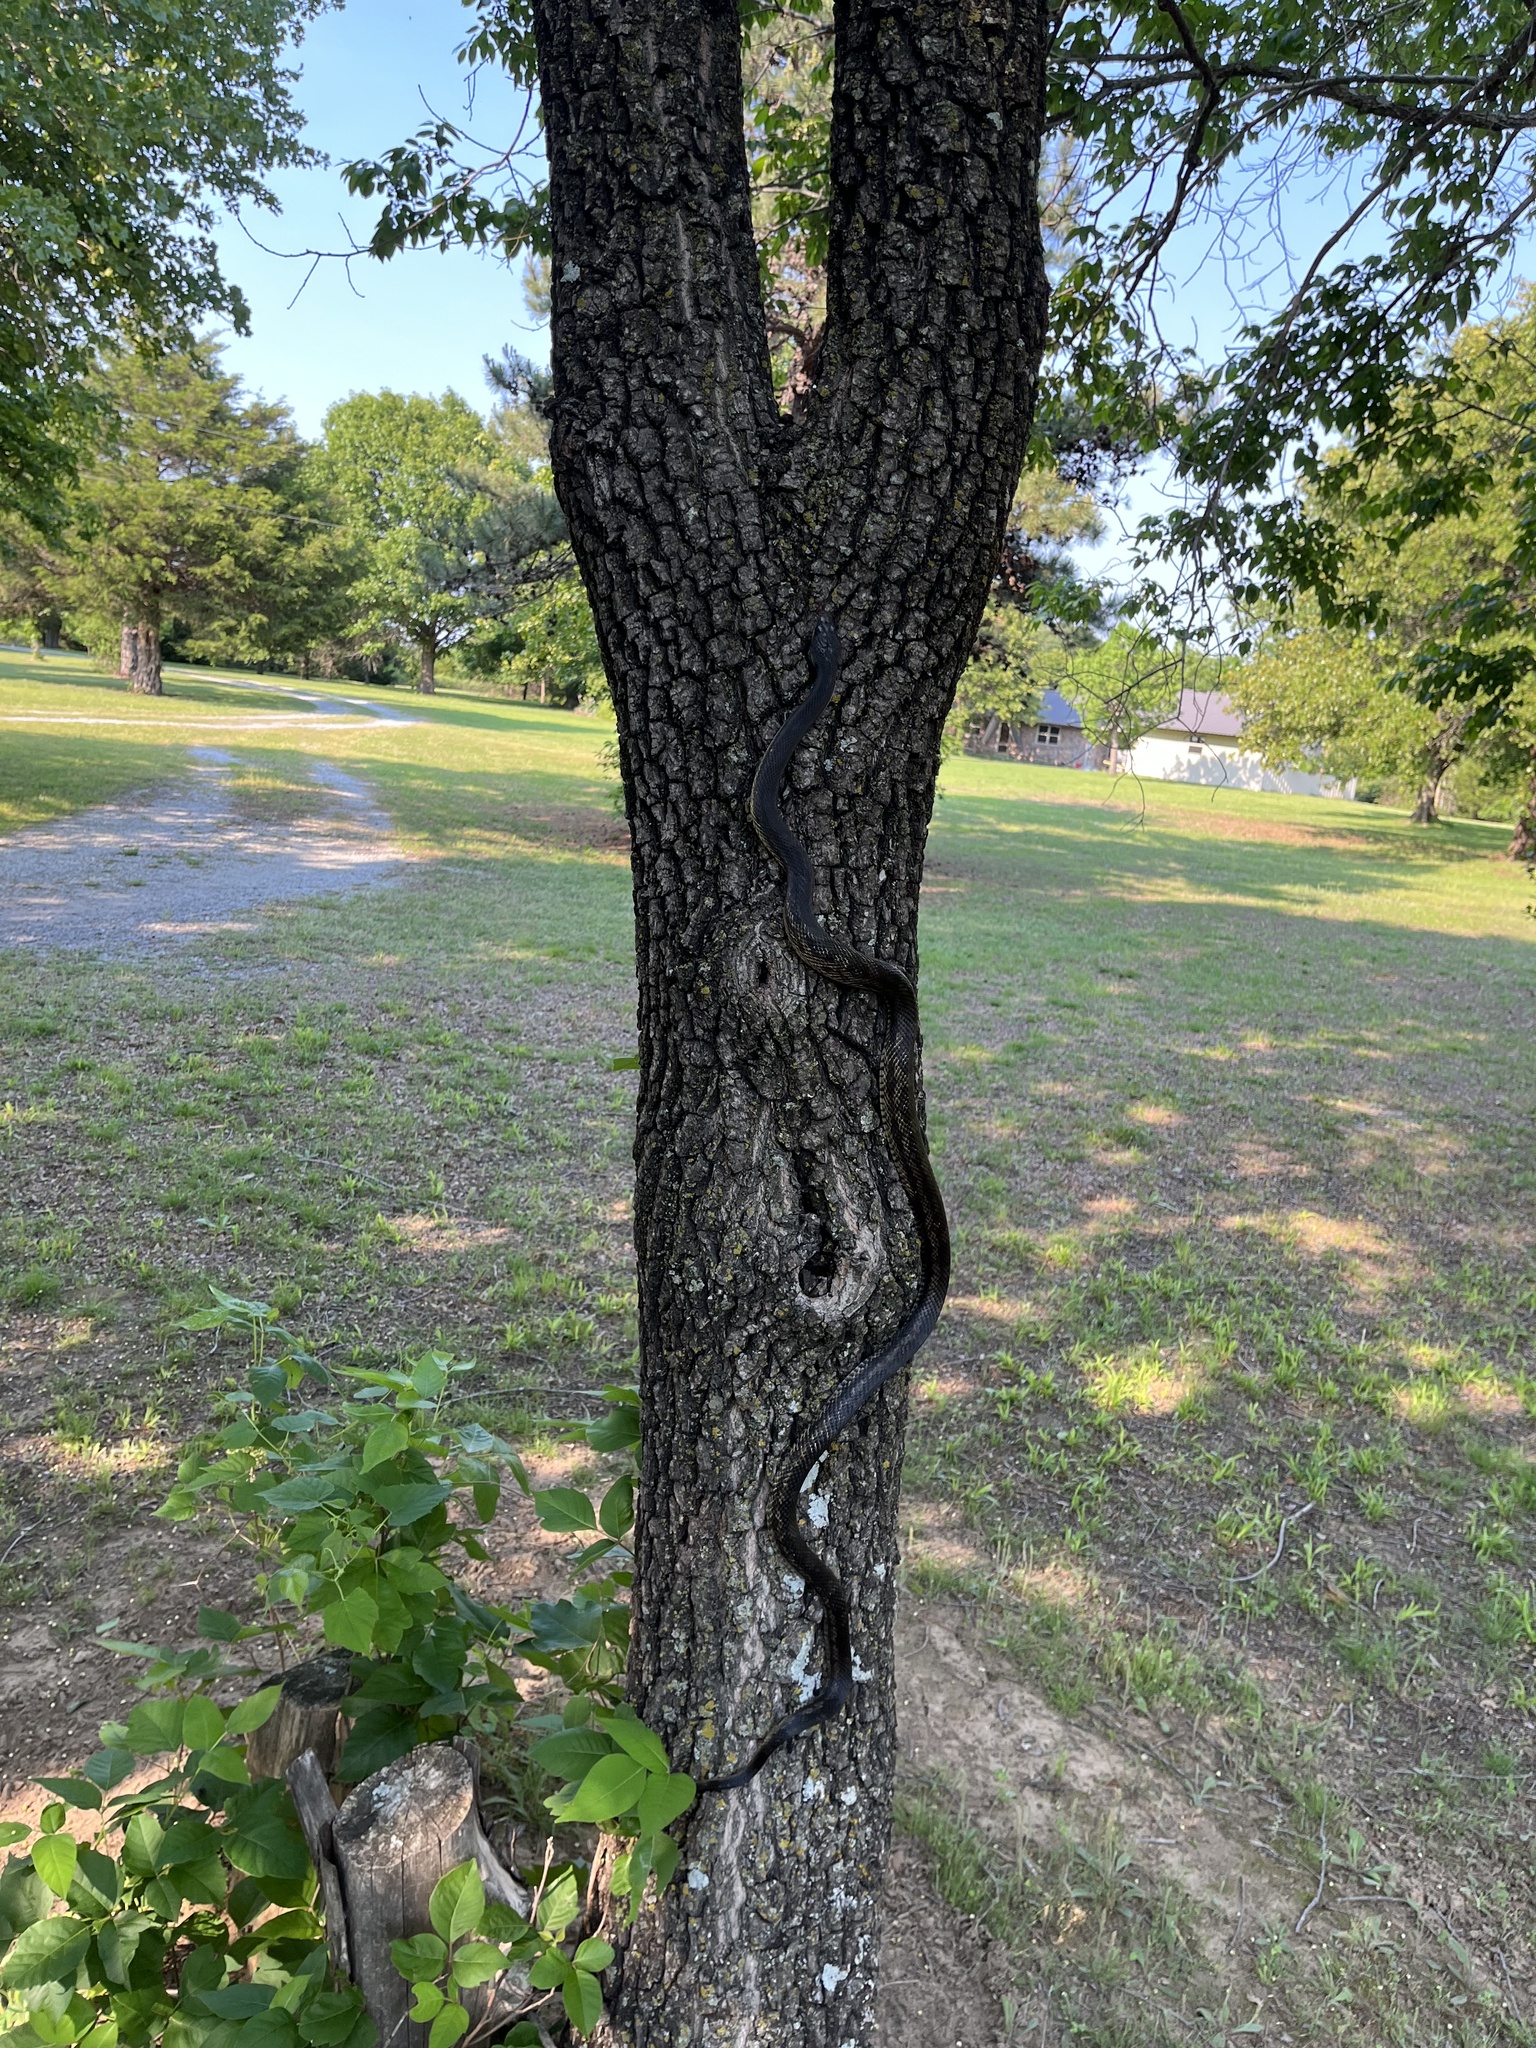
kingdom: Animalia
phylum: Chordata
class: Squamata
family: Colubridae
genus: Pantherophis
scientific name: Pantherophis obsoletus
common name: Black rat snake
